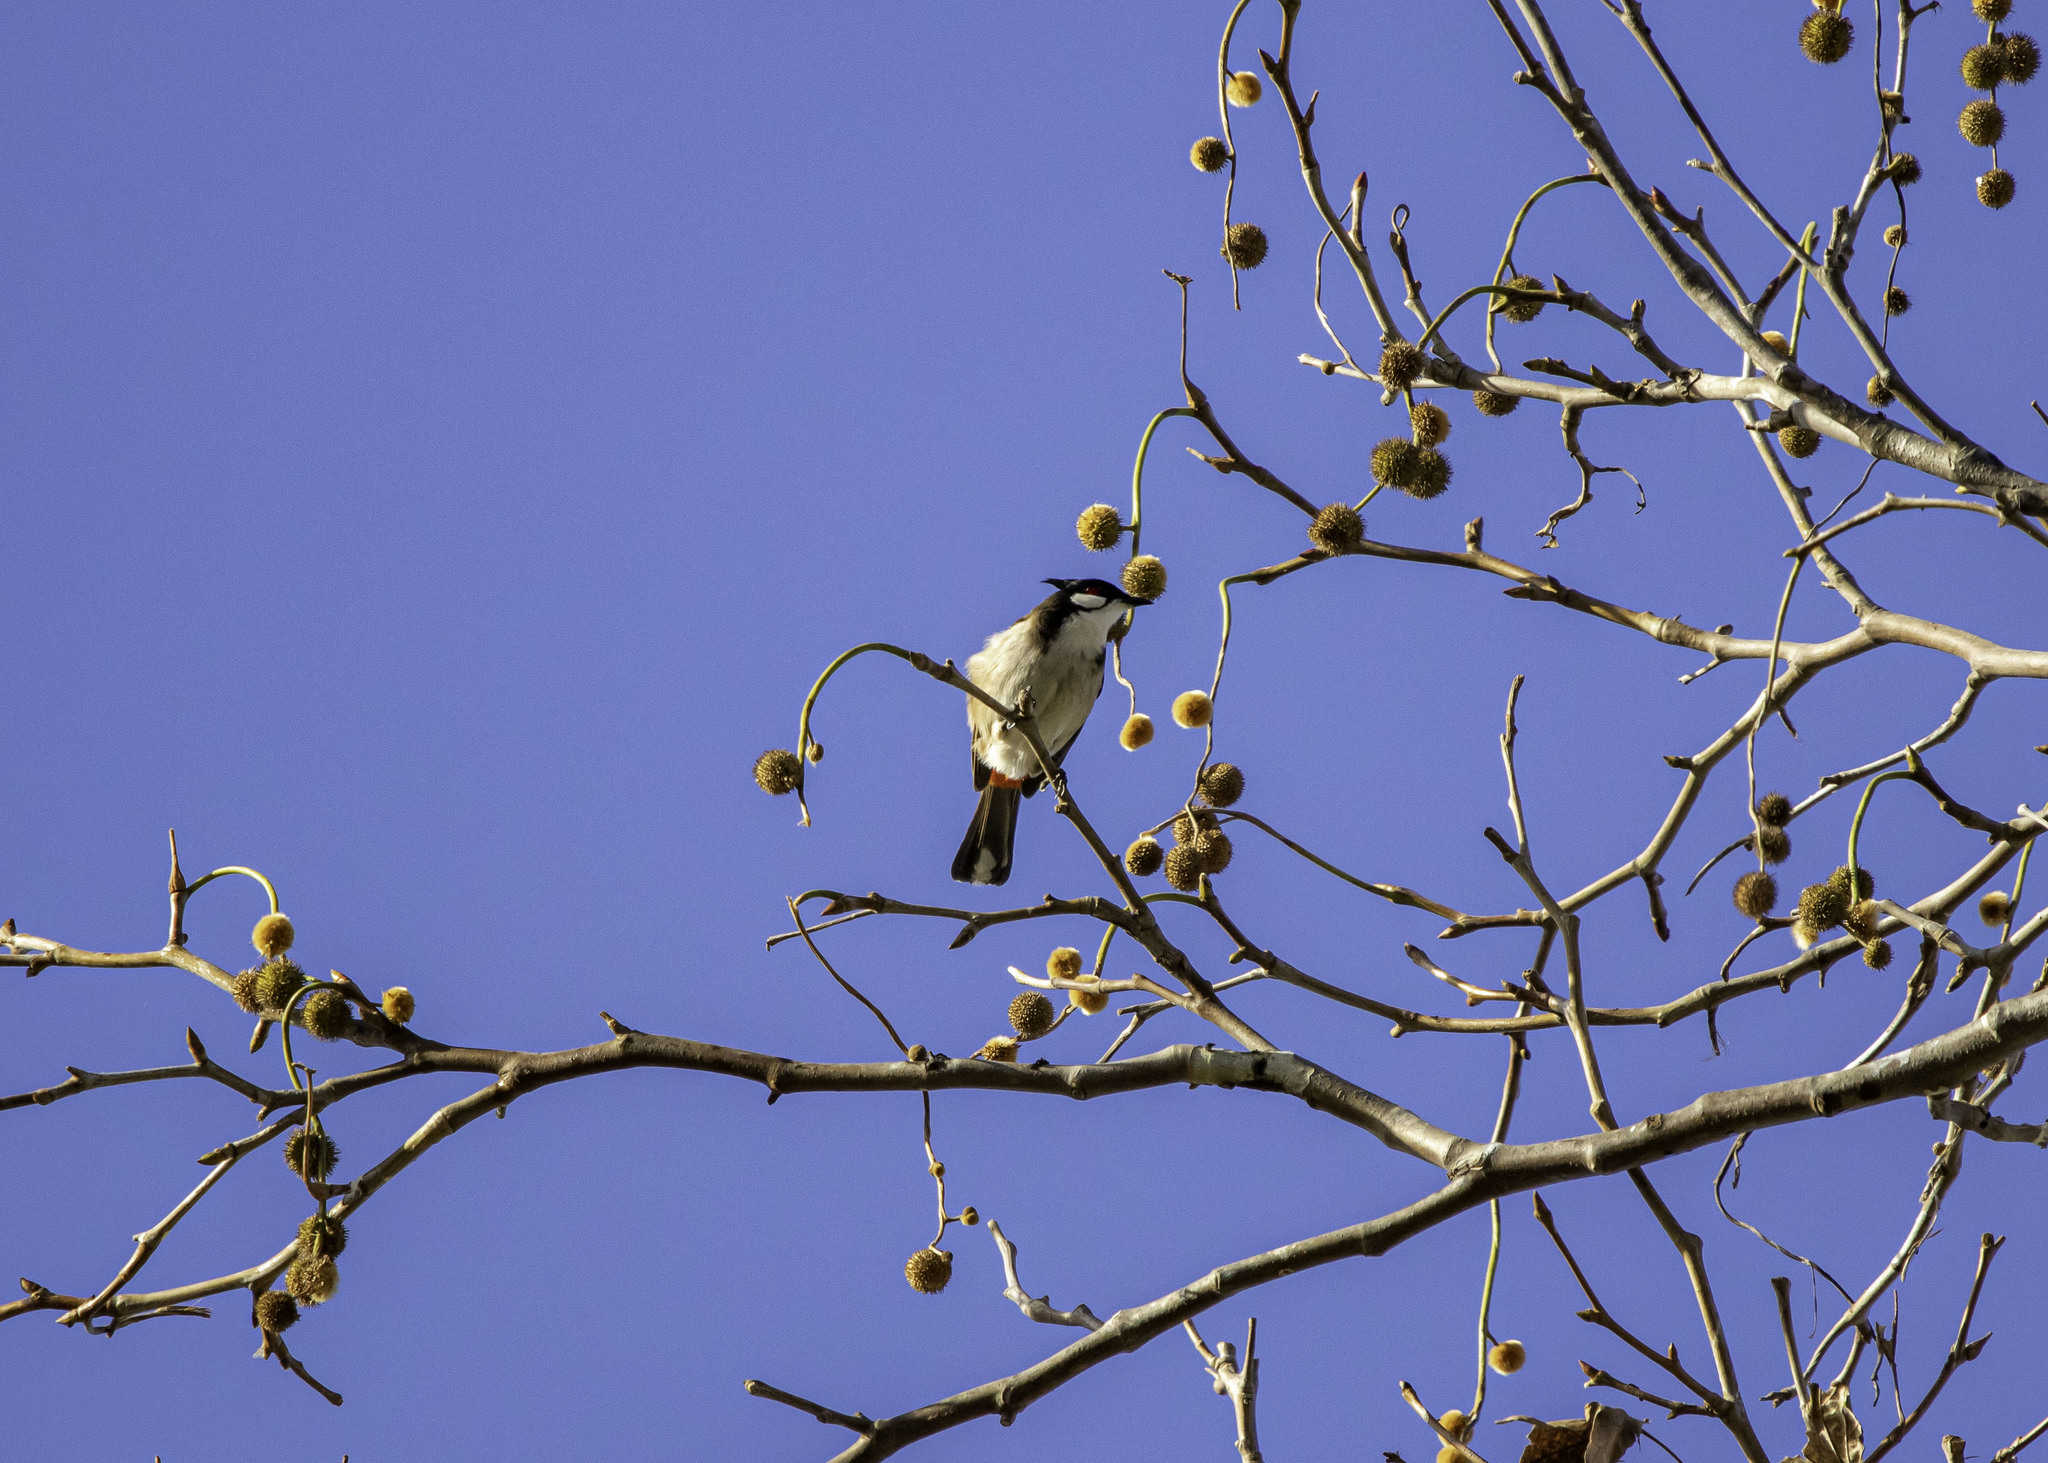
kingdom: Animalia
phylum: Chordata
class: Aves
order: Passeriformes
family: Pycnonotidae
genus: Pycnonotus
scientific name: Pycnonotus jocosus
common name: Red-whiskered bulbul
